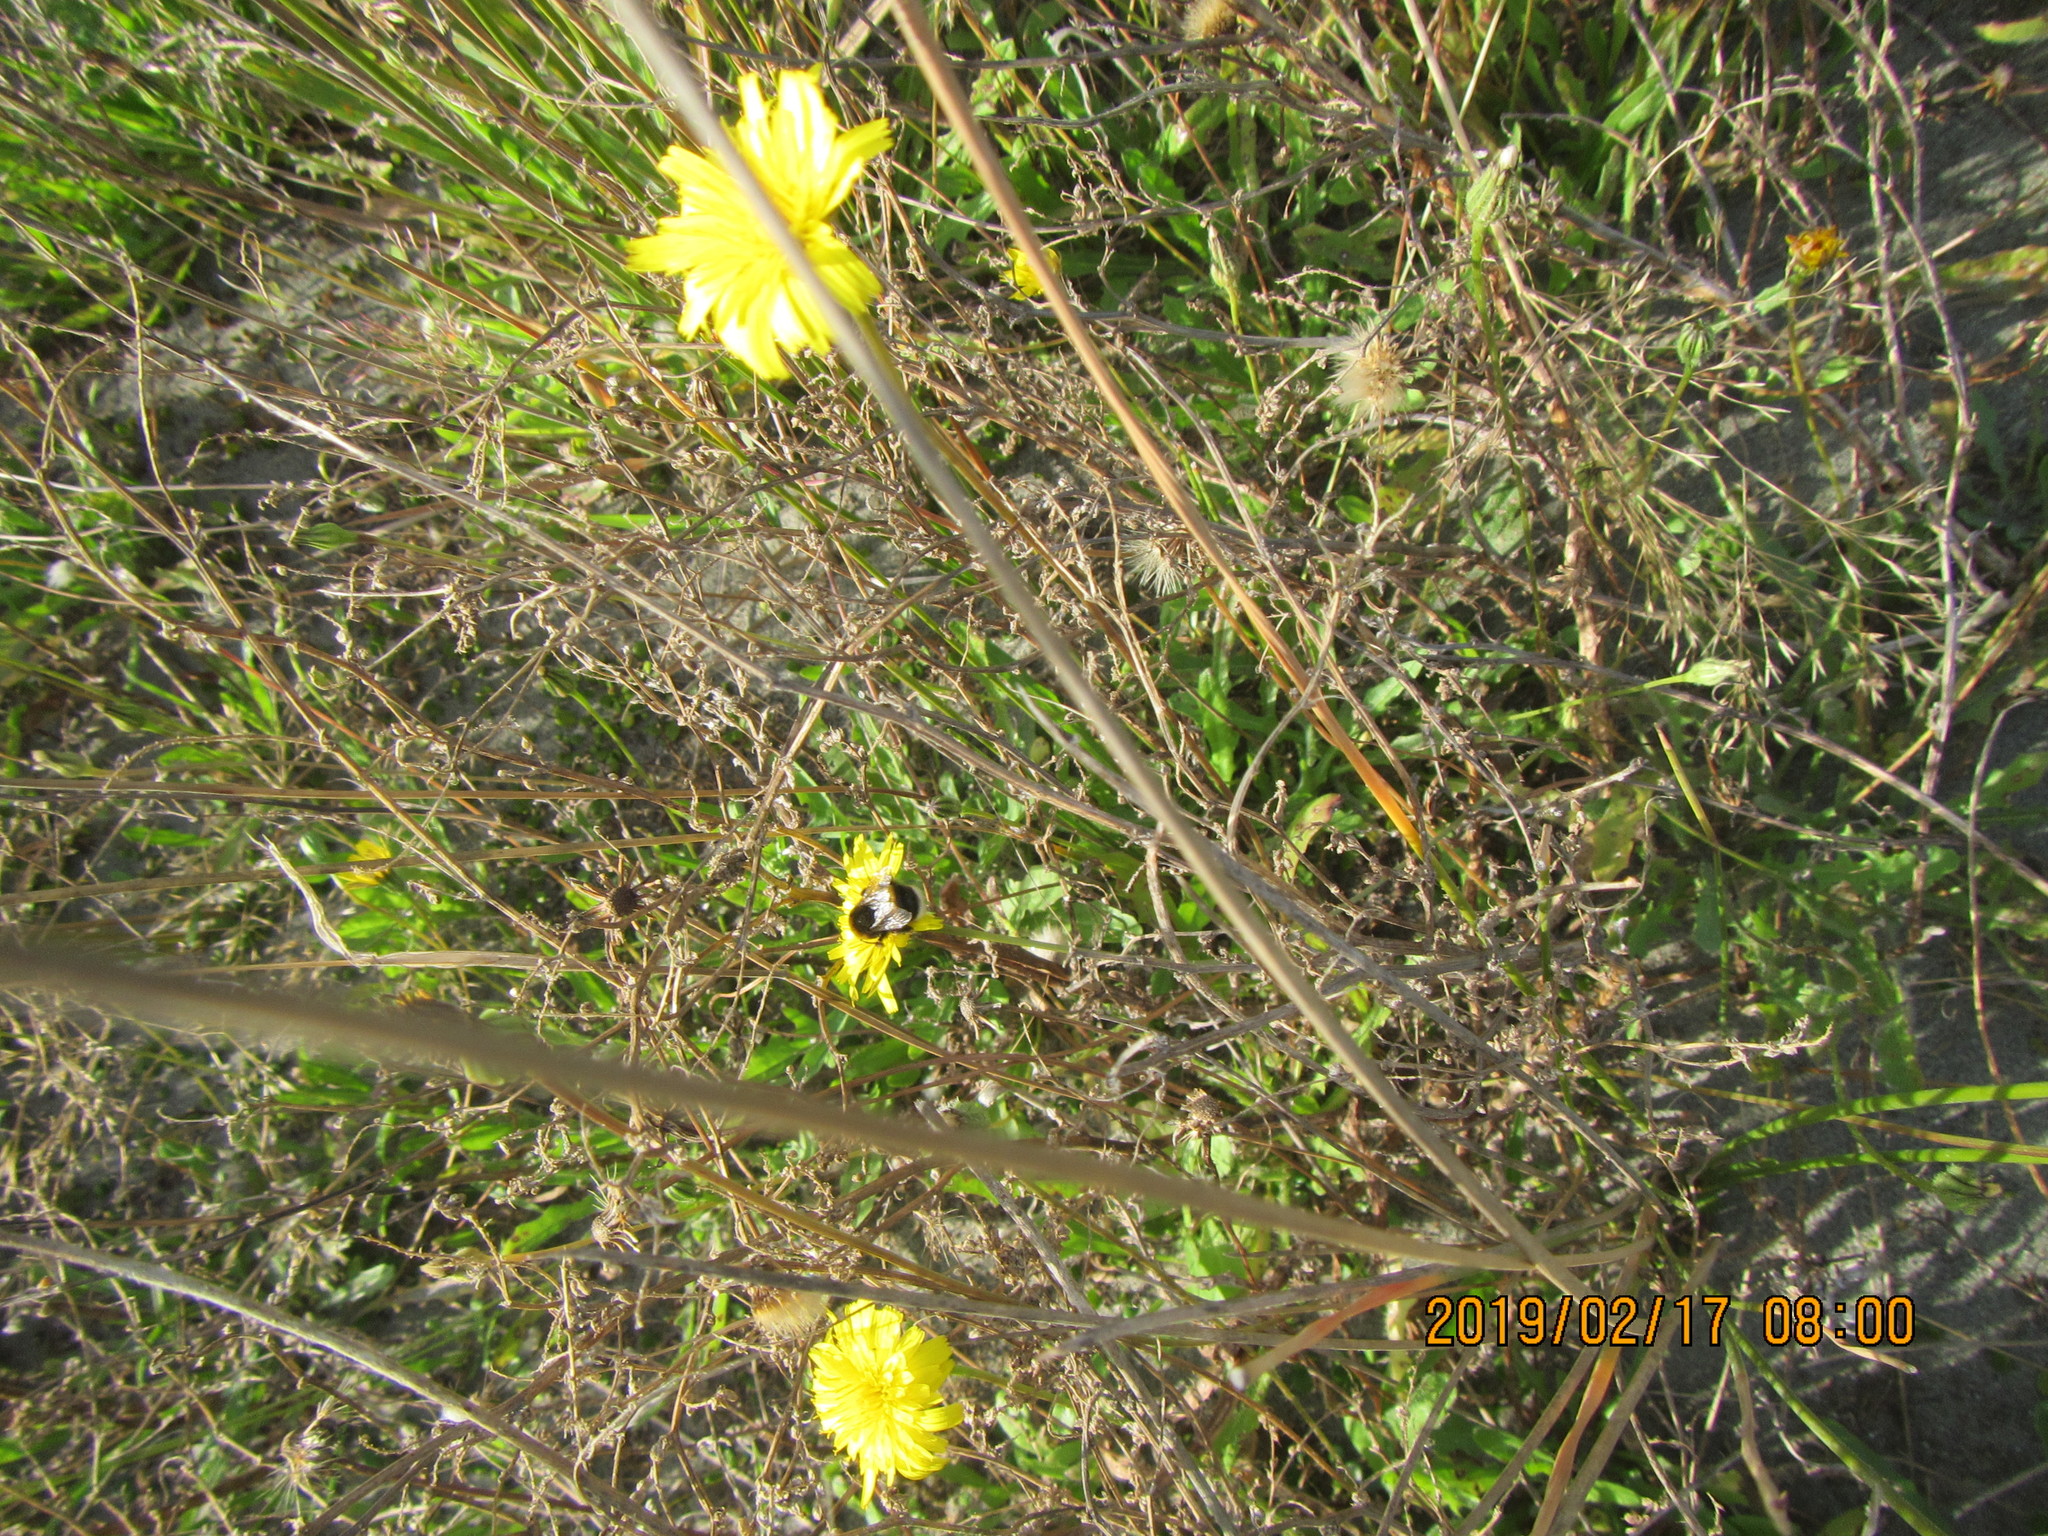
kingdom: Animalia
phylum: Arthropoda
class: Insecta
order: Hymenoptera
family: Apidae
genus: Bombus
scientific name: Bombus terrestris
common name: Buff-tailed bumblebee
